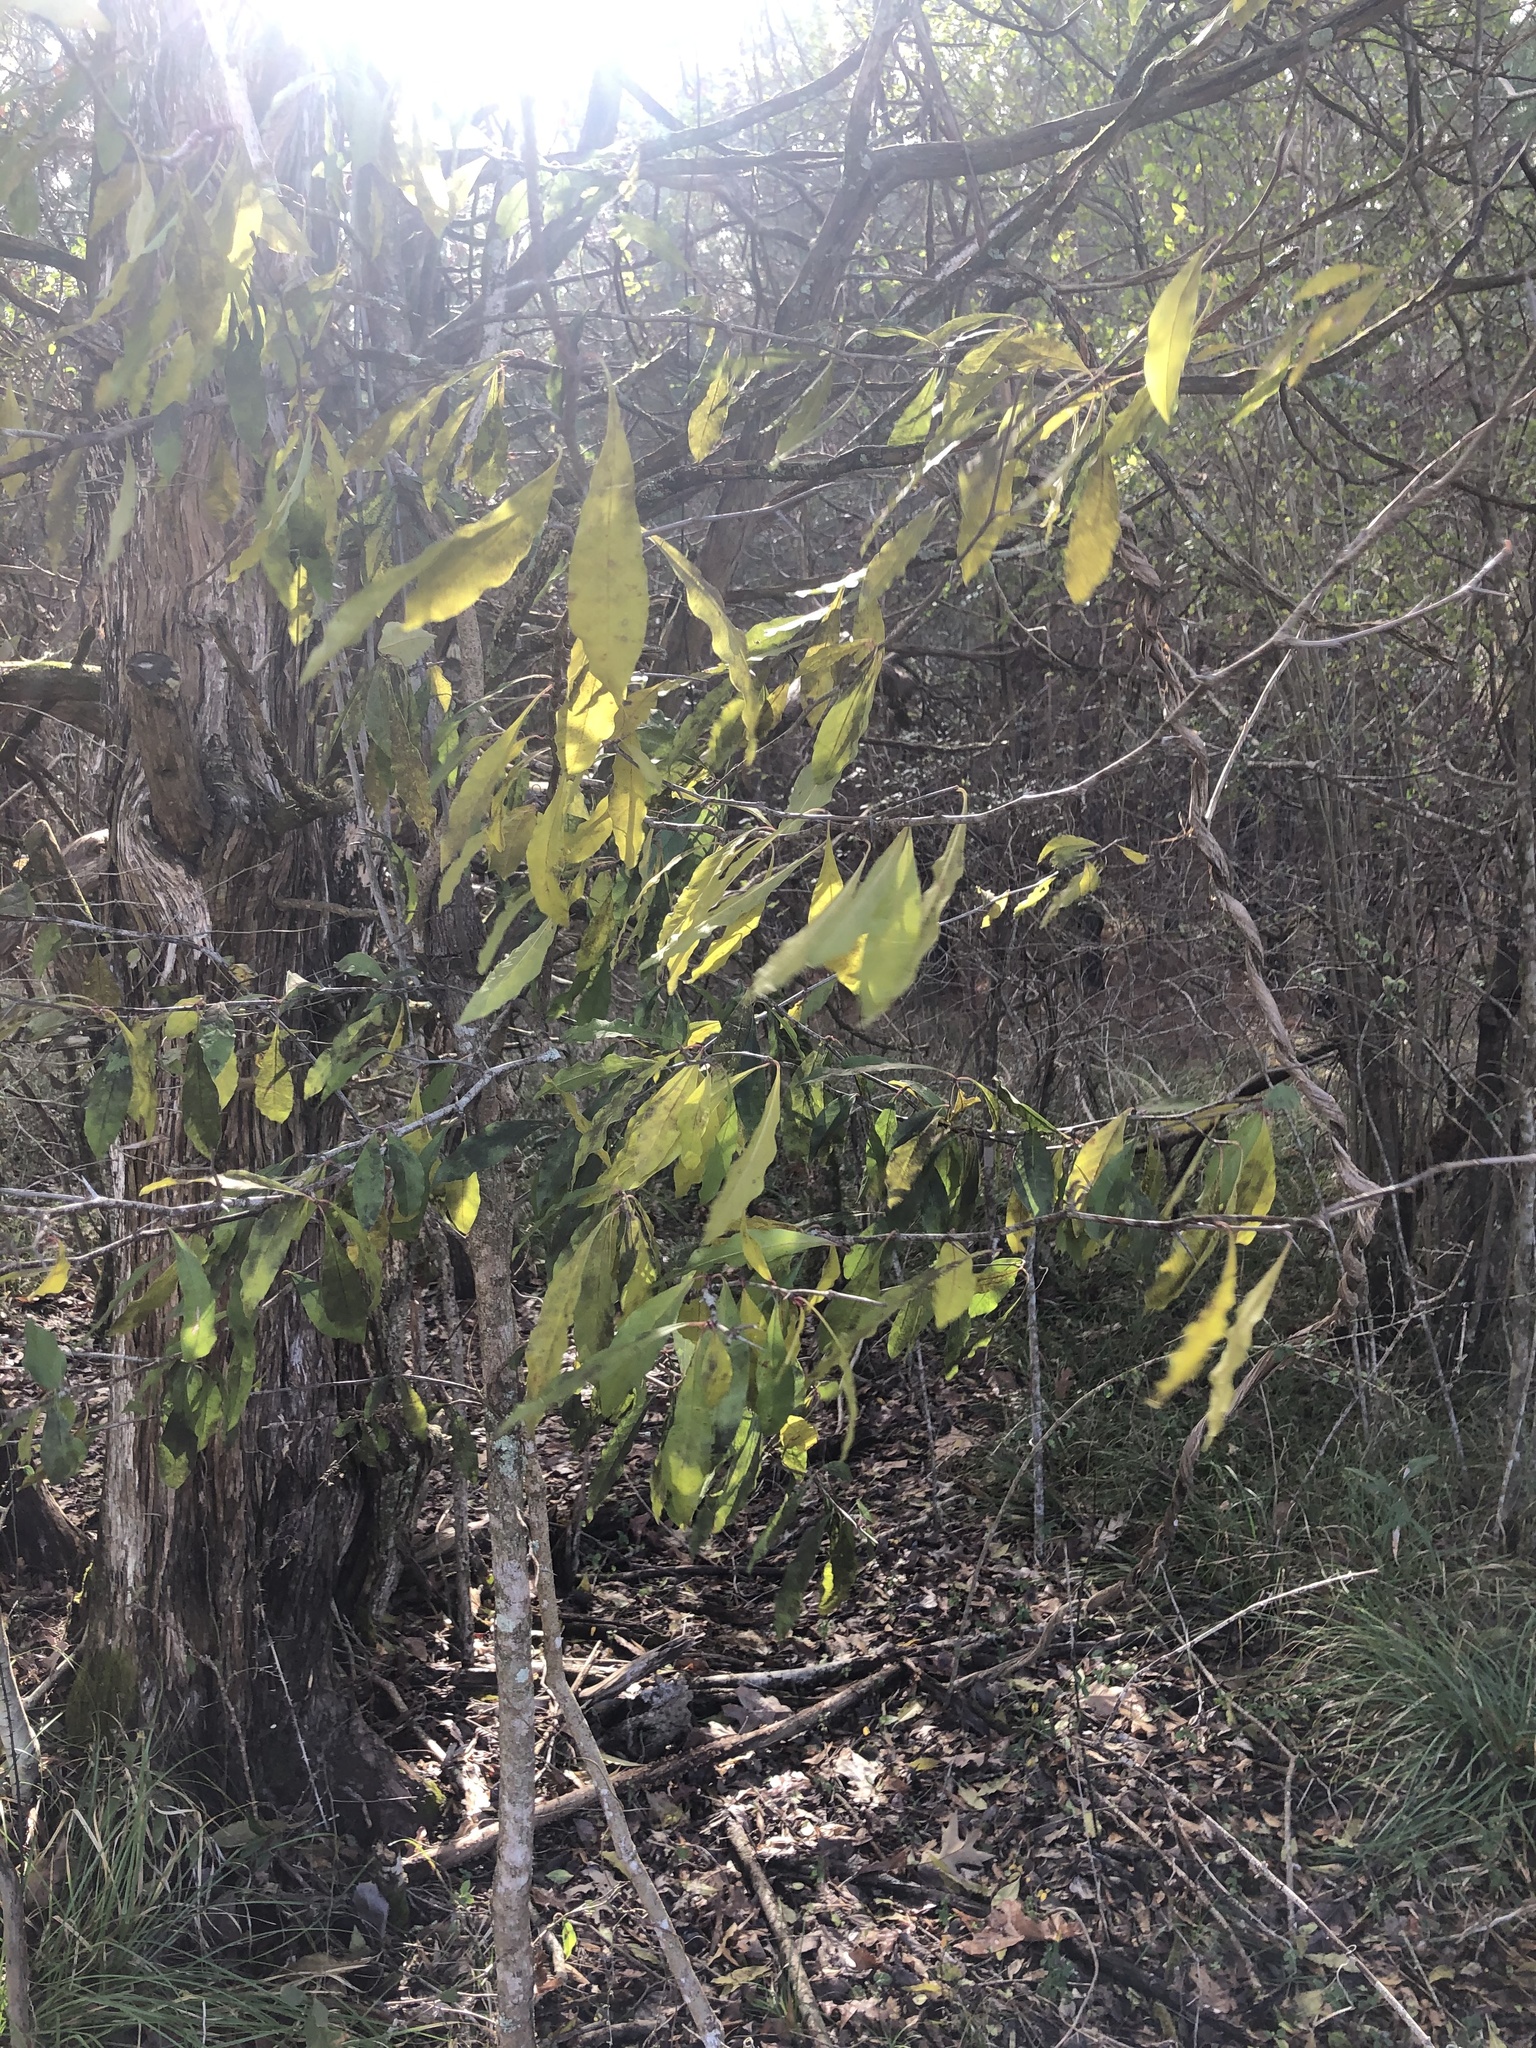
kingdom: Plantae
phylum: Tracheophyta
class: Magnoliopsida
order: Ericales
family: Sapotaceae
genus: Sideroxylon
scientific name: Sideroxylon lycioides
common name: Buckthorn bumelia
